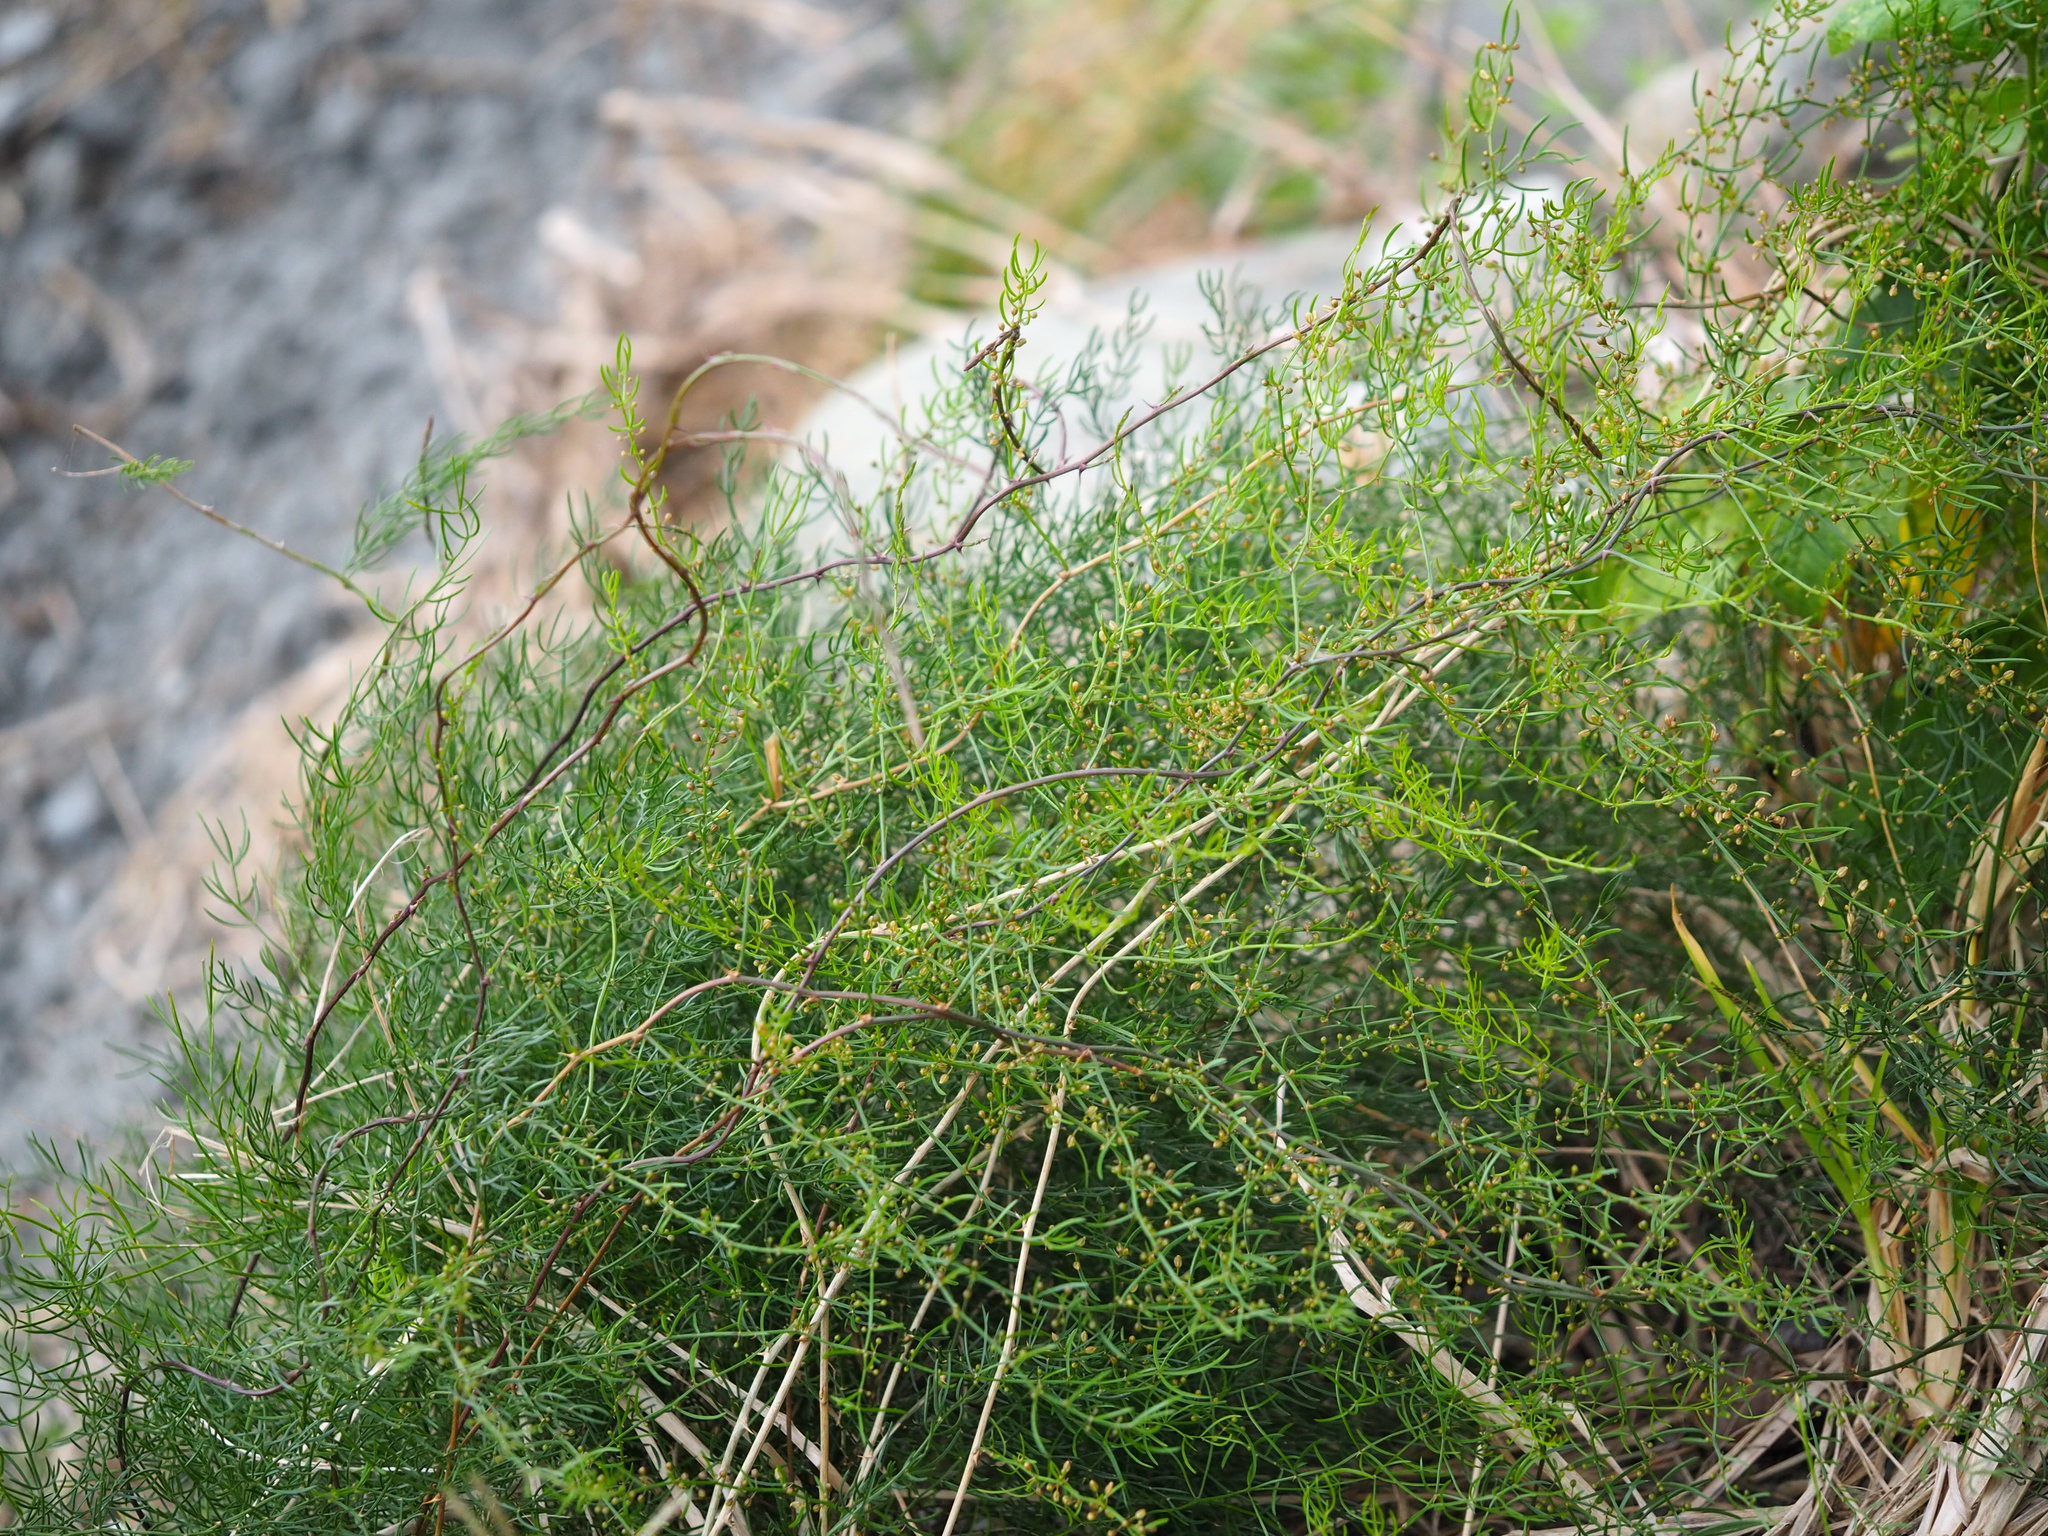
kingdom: Plantae
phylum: Tracheophyta
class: Liliopsida
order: Asparagales
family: Asparagaceae
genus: Asparagus
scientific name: Asparagus cochinchinensis
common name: Chinese asparagus
